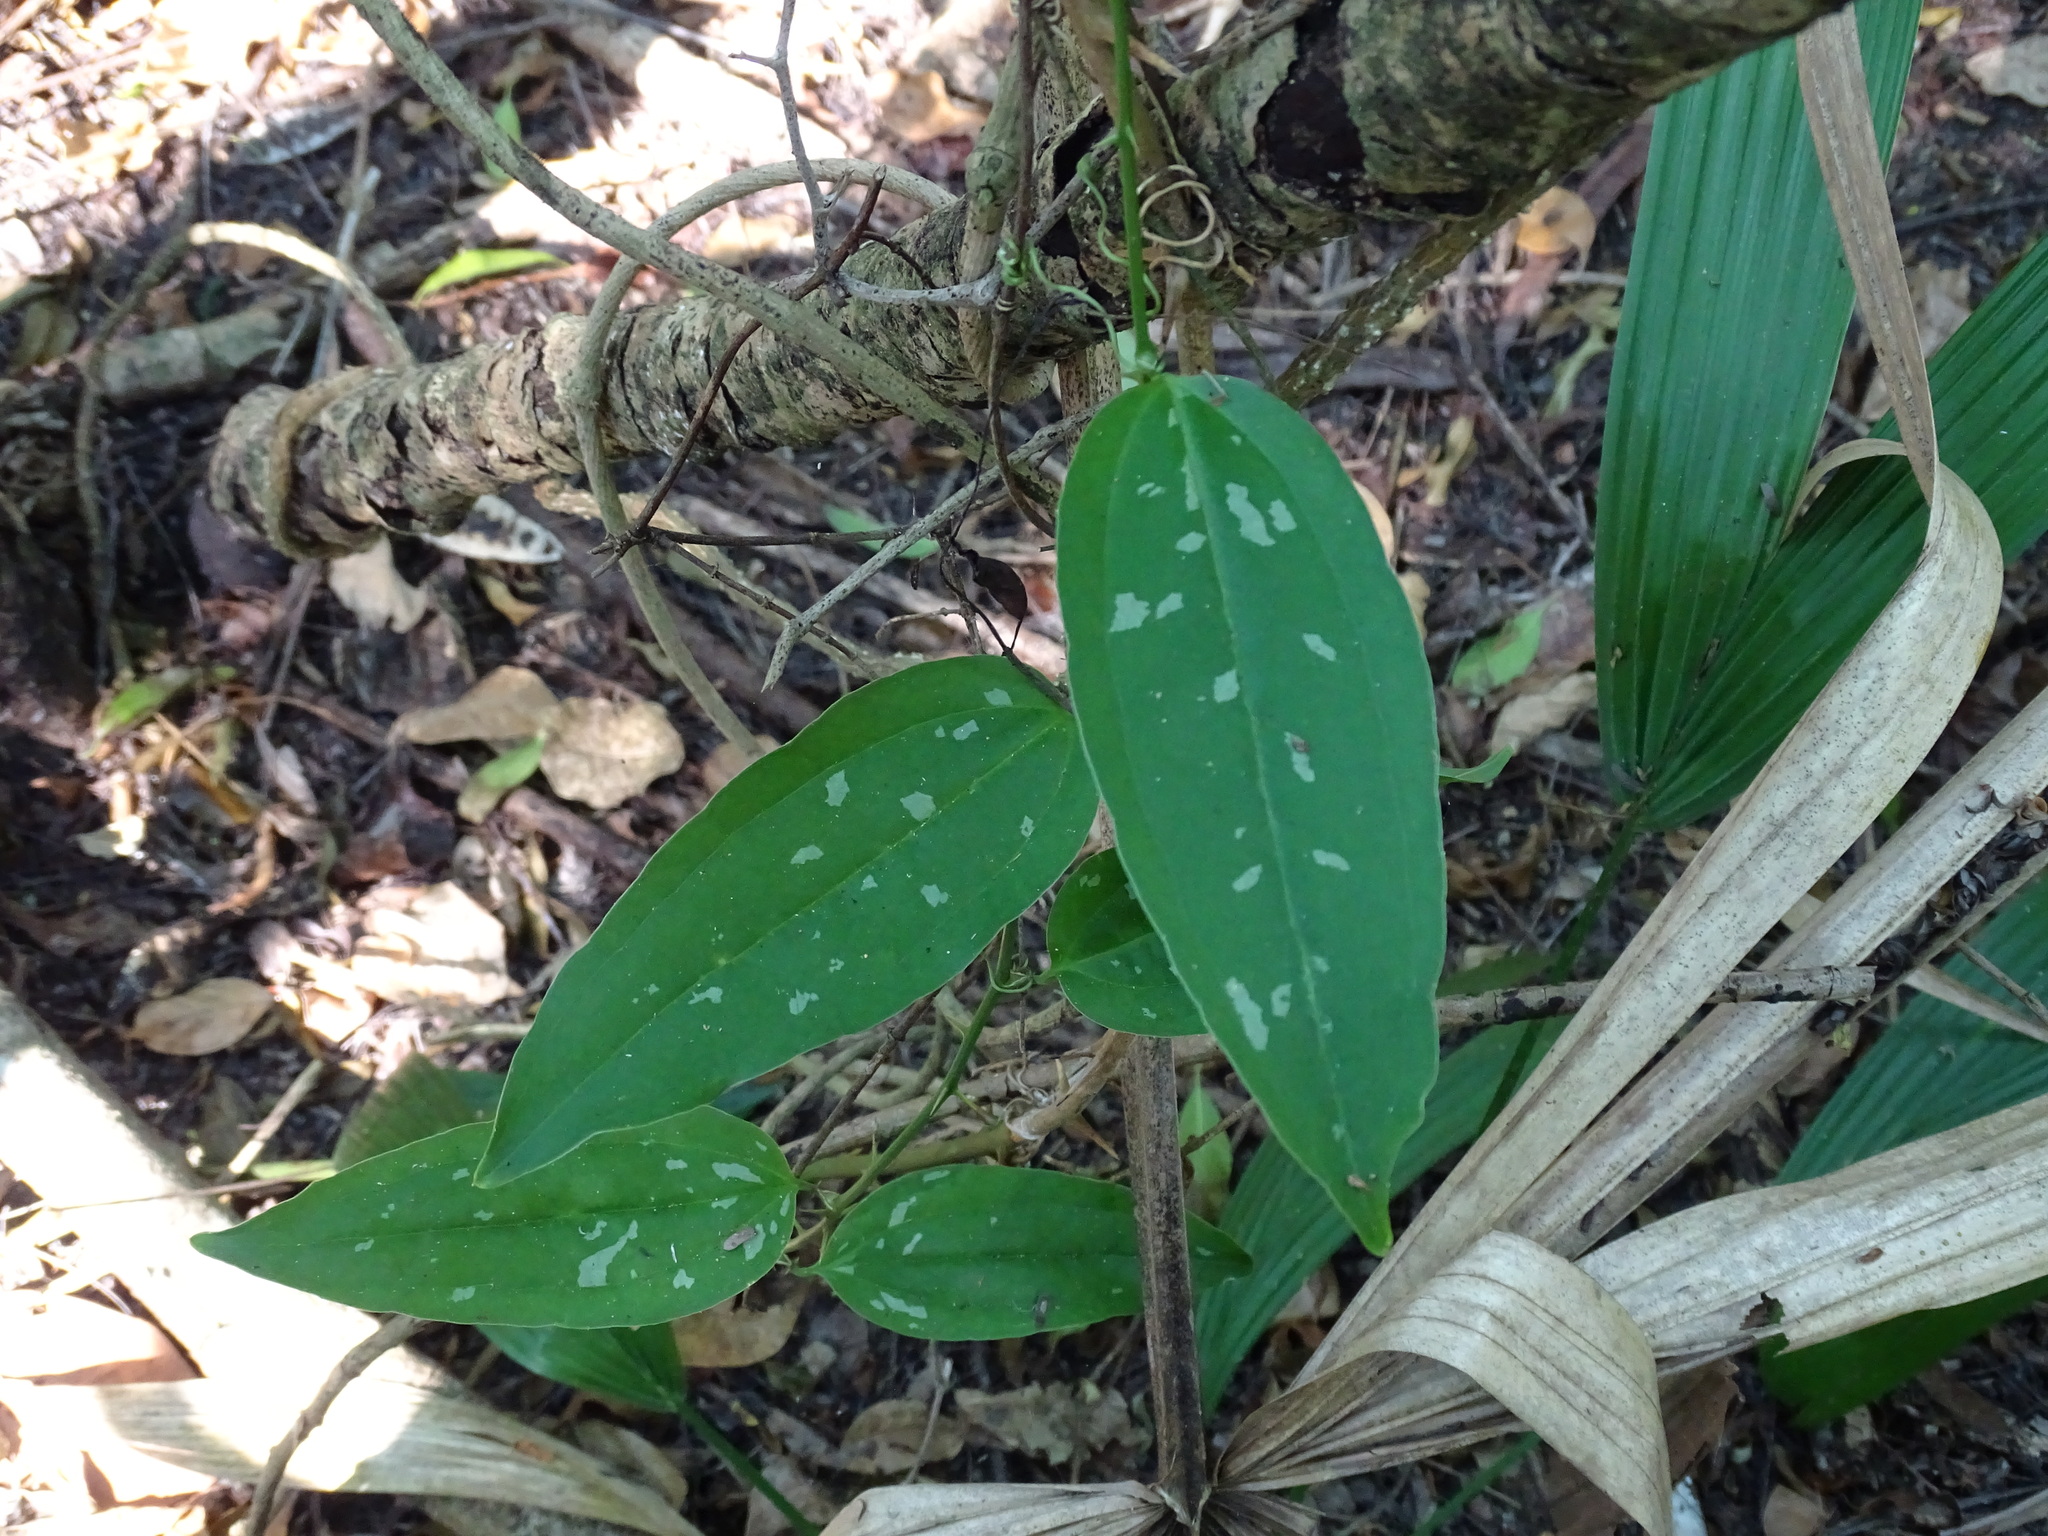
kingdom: Plantae
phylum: Tracheophyta
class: Liliopsida
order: Liliales
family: Smilacaceae
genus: Smilax
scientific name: Smilax spinosa
